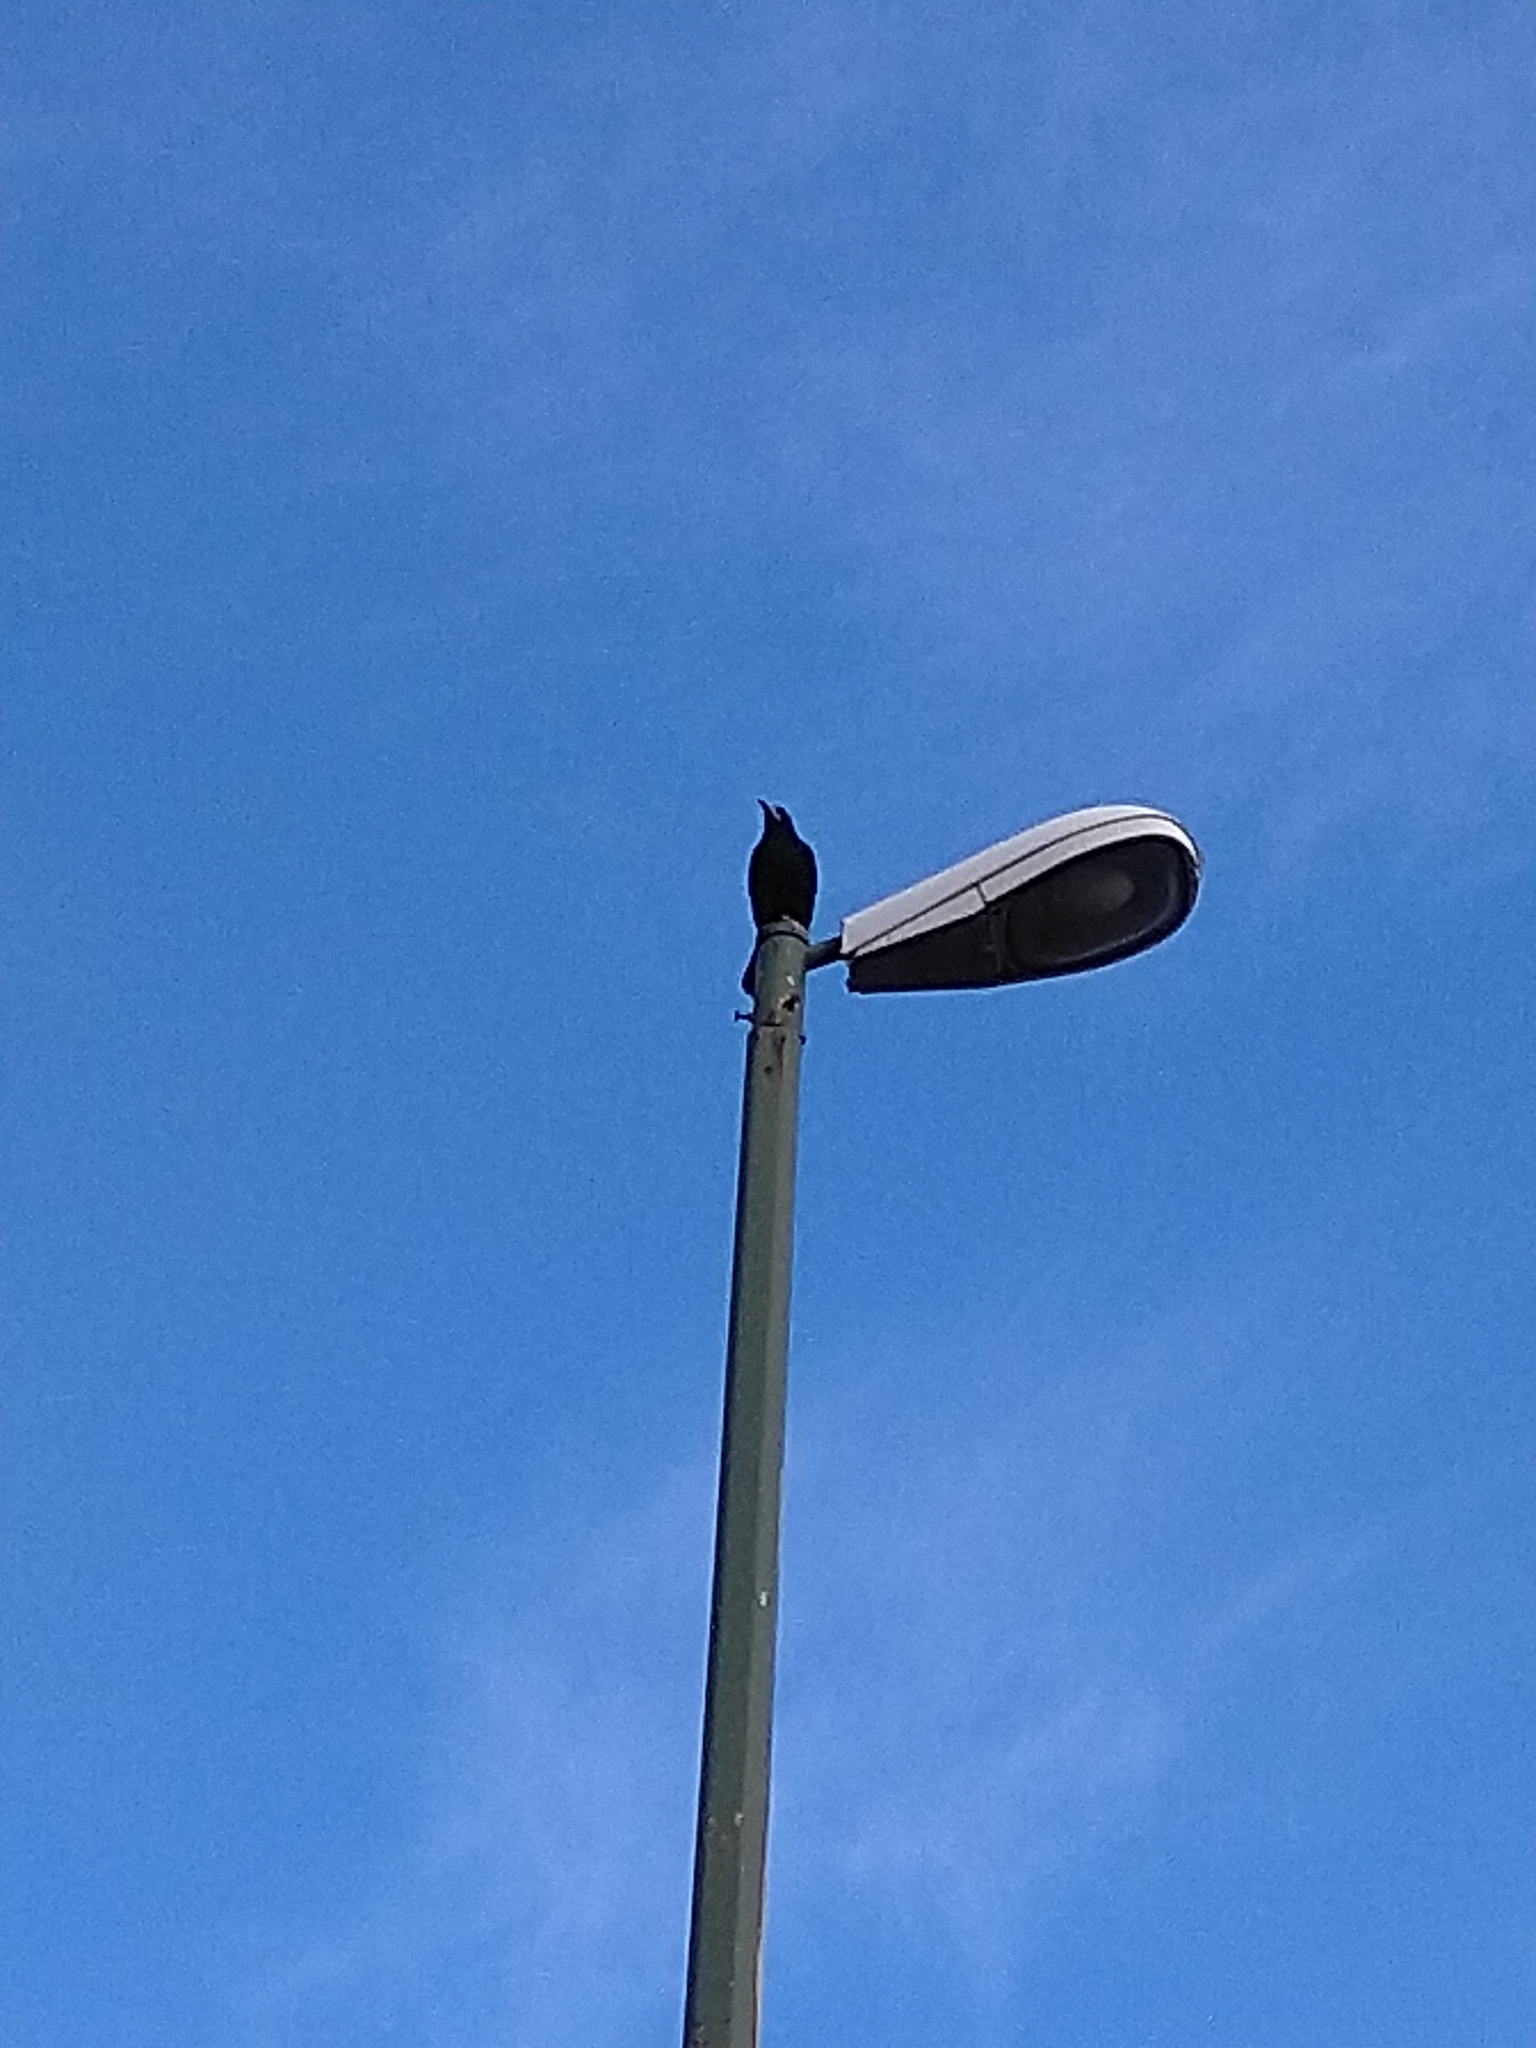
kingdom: Animalia
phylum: Chordata
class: Aves
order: Passeriformes
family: Corvidae
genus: Corvus
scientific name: Corvus frugilegus
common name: Rook
